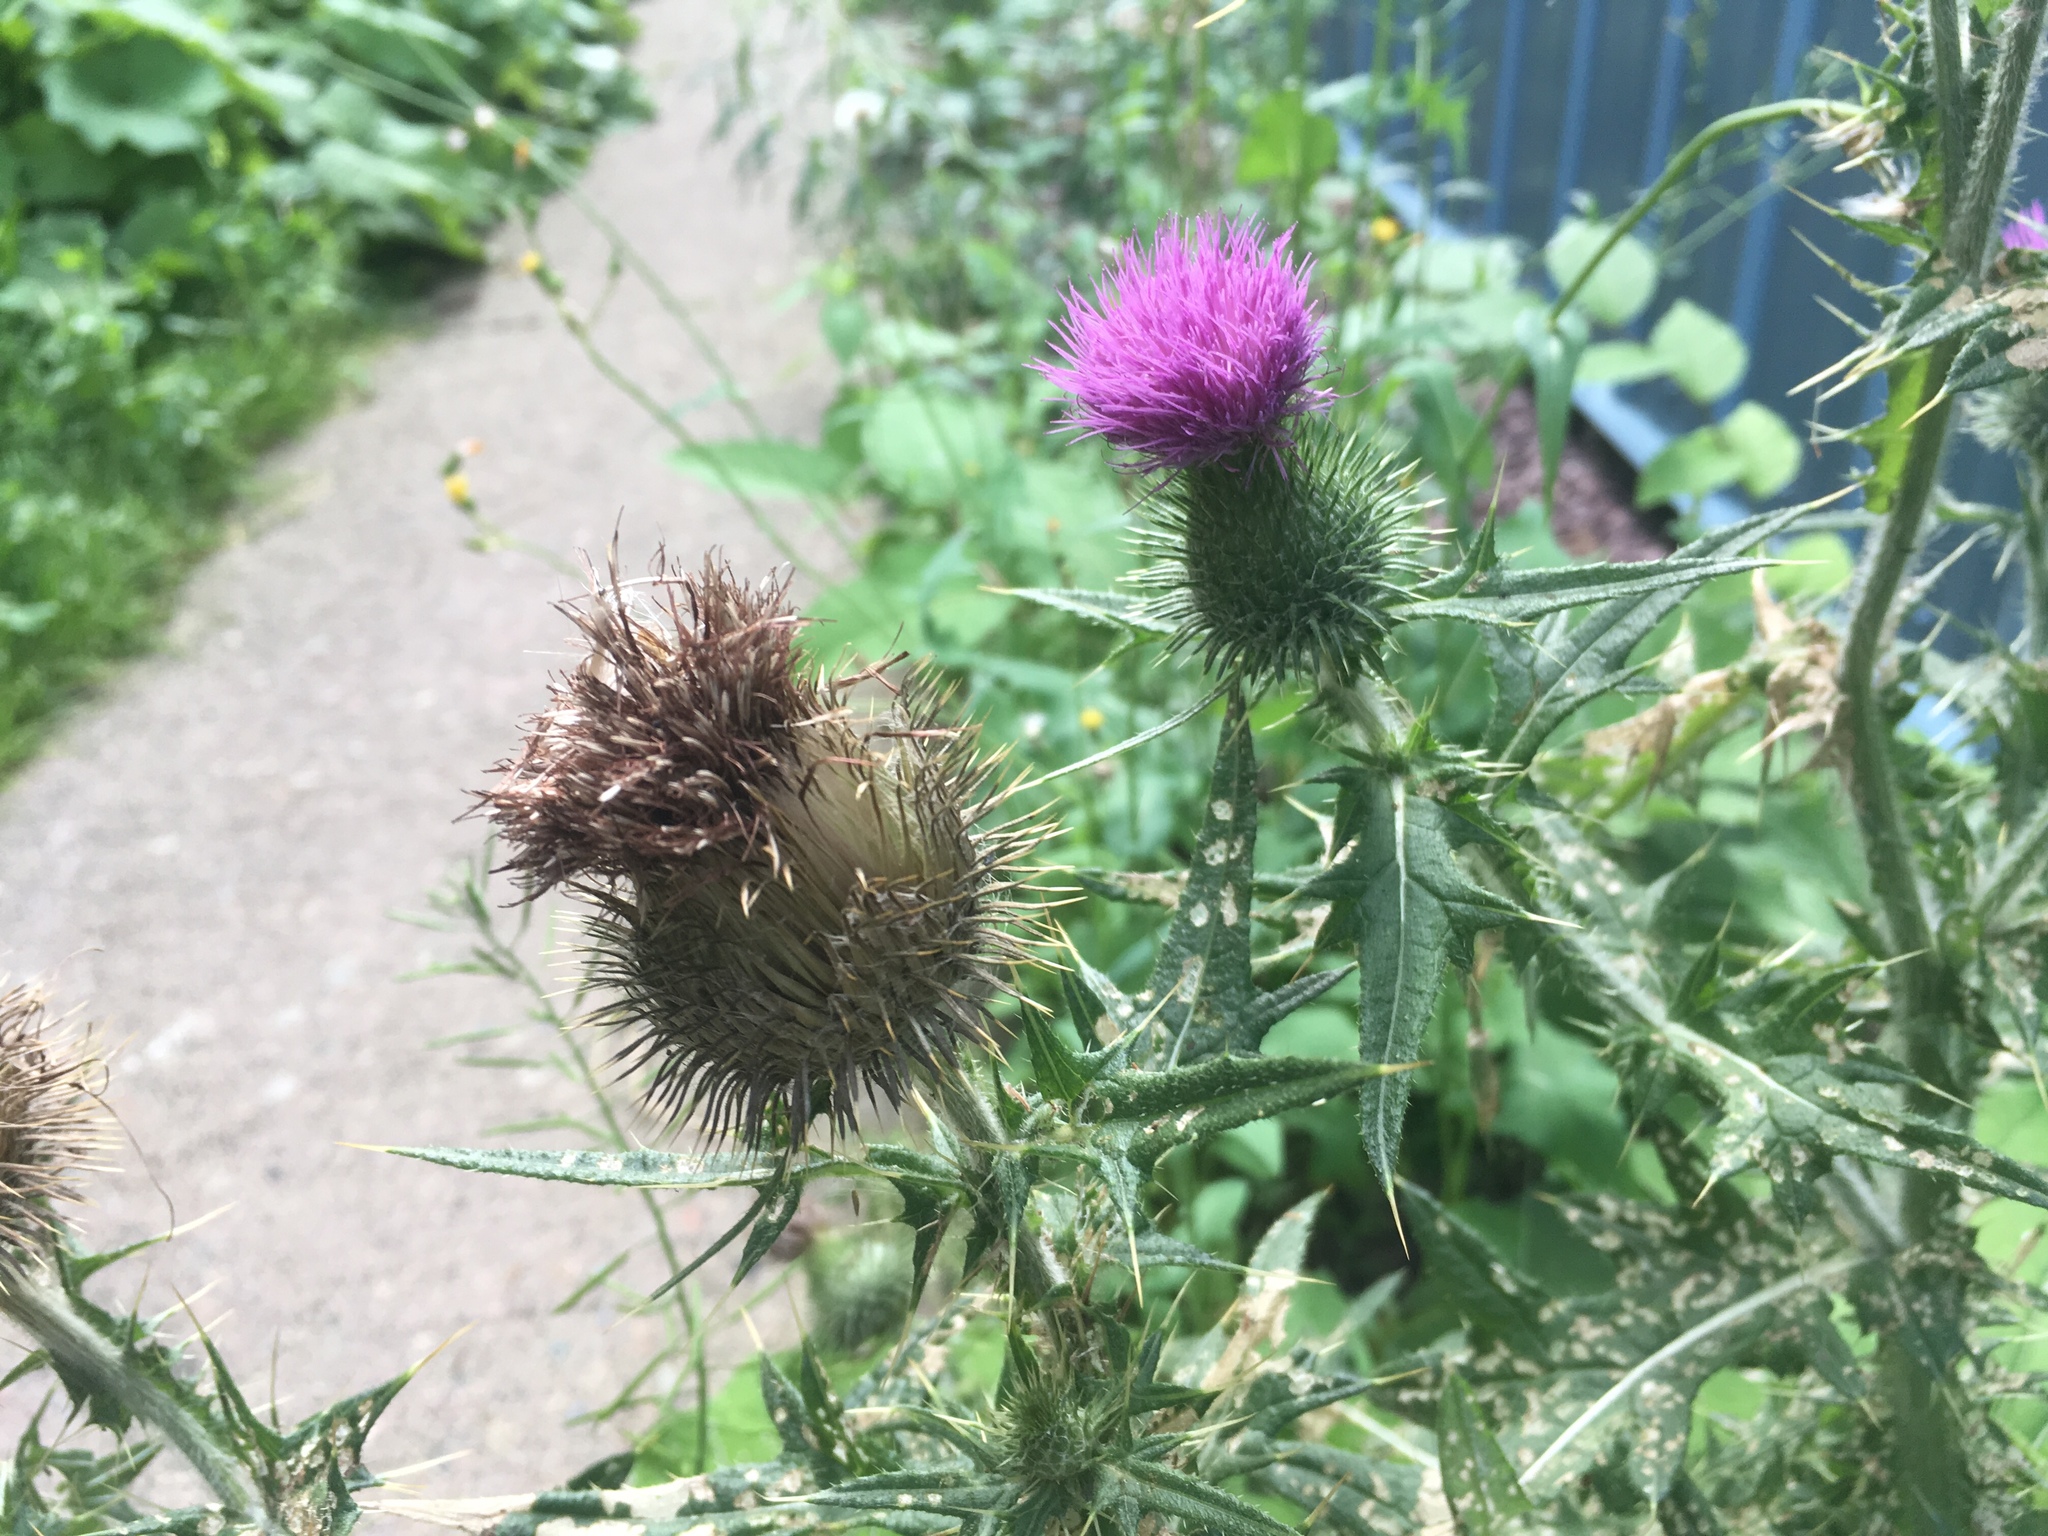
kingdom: Plantae
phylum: Tracheophyta
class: Magnoliopsida
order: Asterales
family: Asteraceae
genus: Cirsium
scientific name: Cirsium vulgare
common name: Bull thistle
